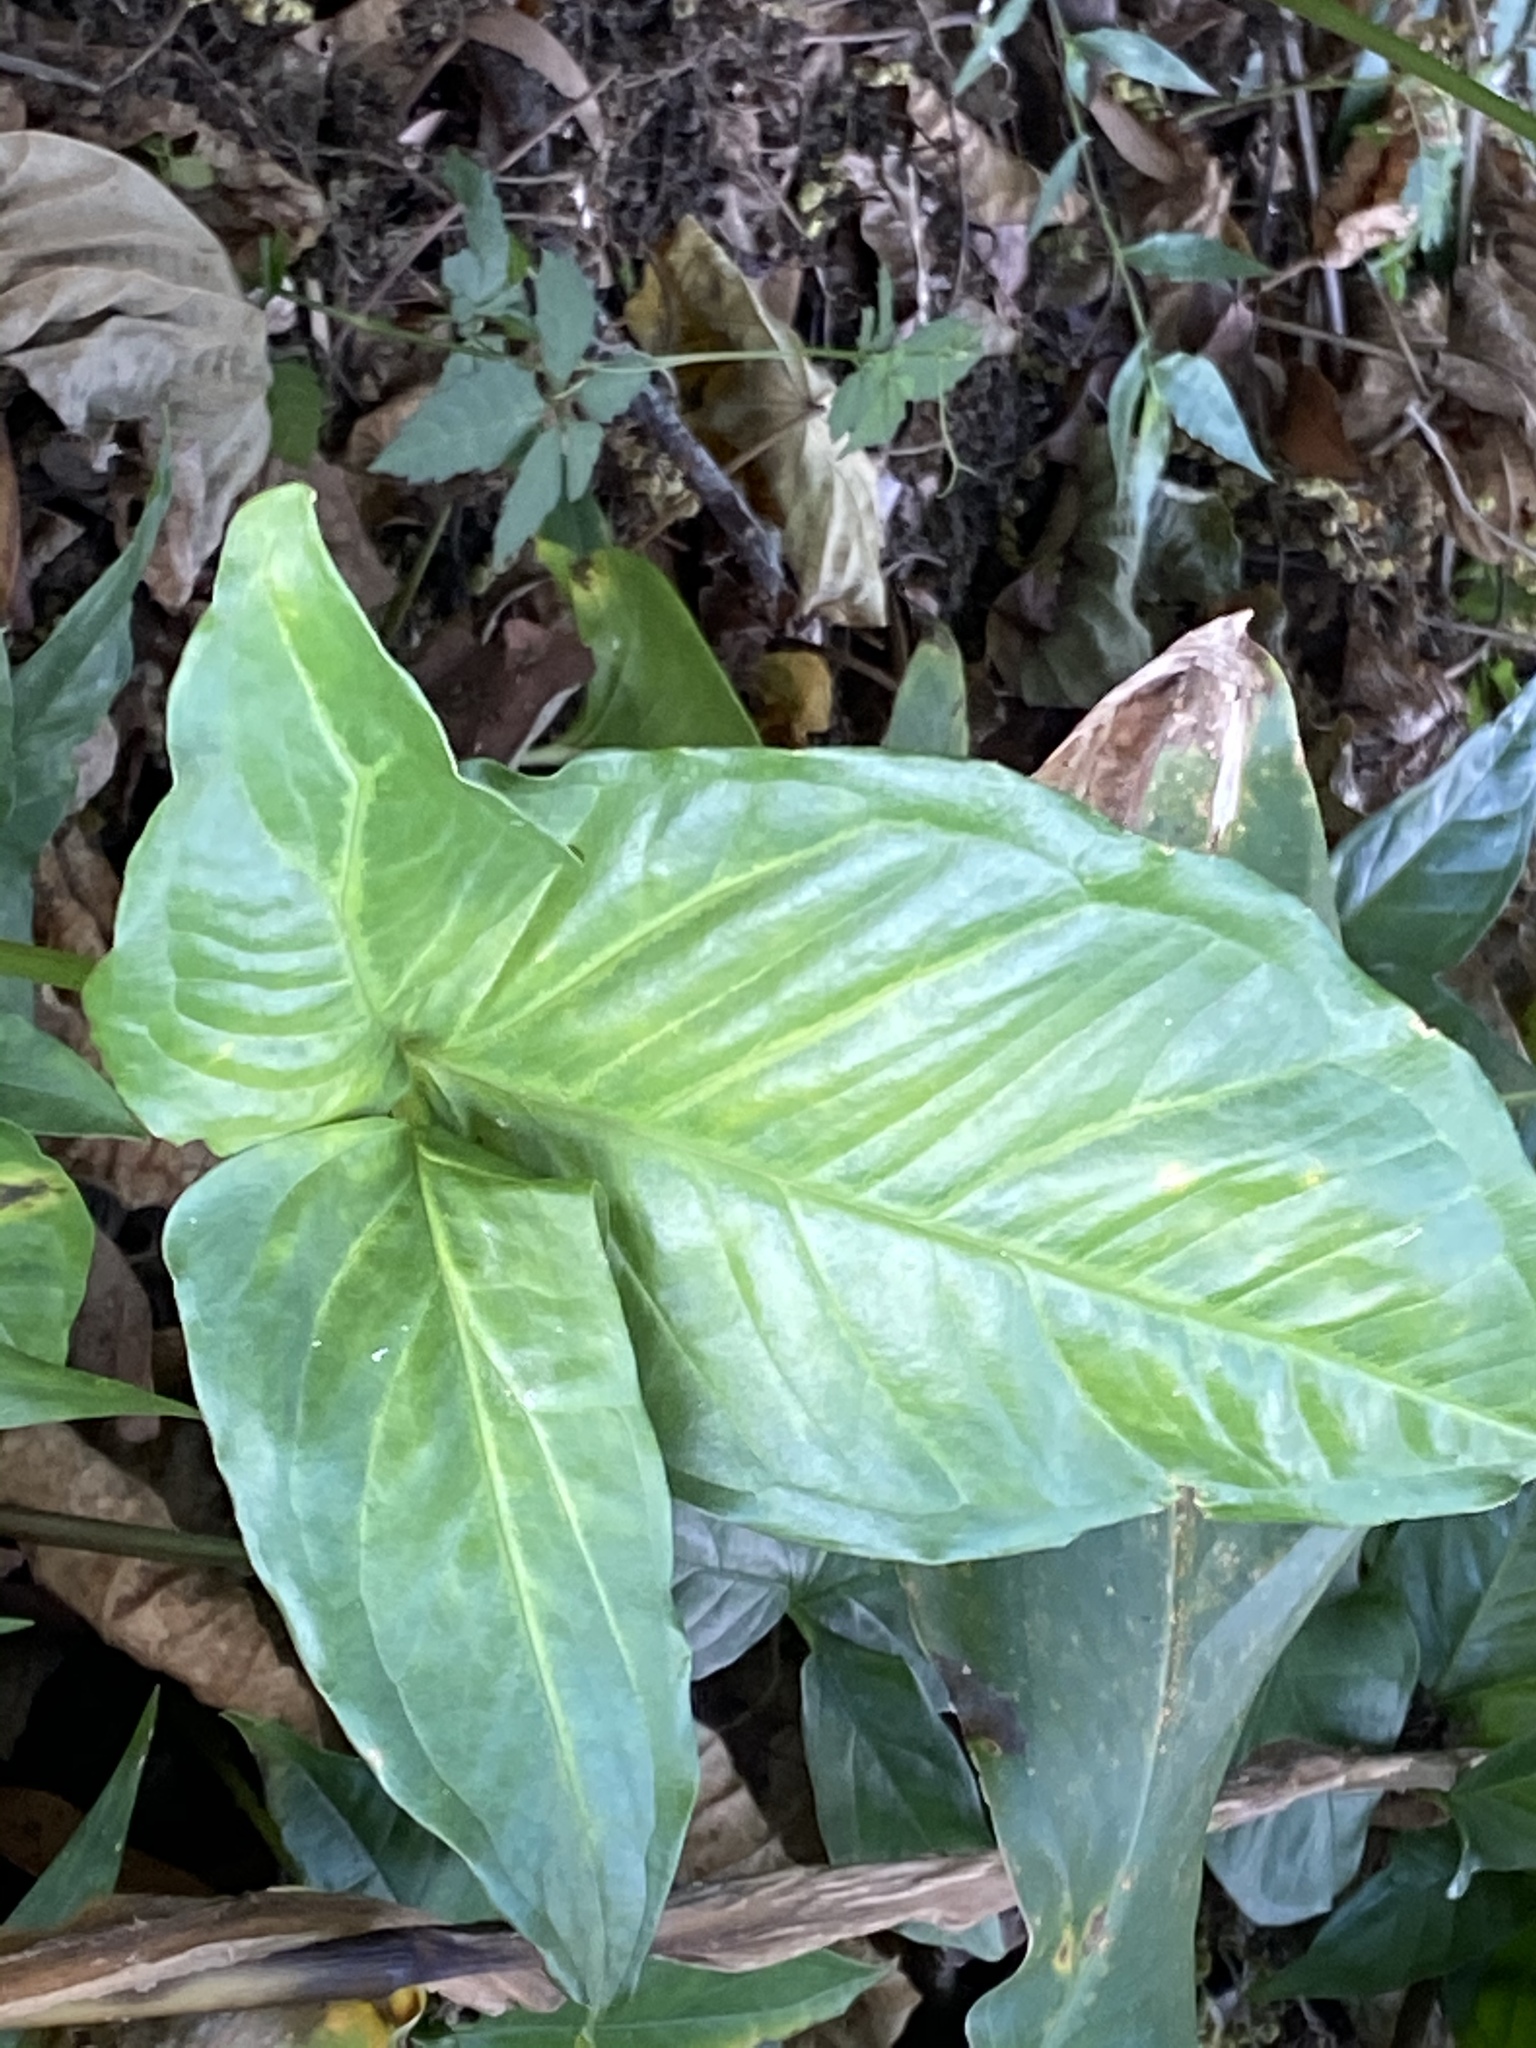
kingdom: Plantae
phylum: Tracheophyta
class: Liliopsida
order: Alismatales
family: Araceae
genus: Syngonium
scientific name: Syngonium podophyllum
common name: American evergreen
